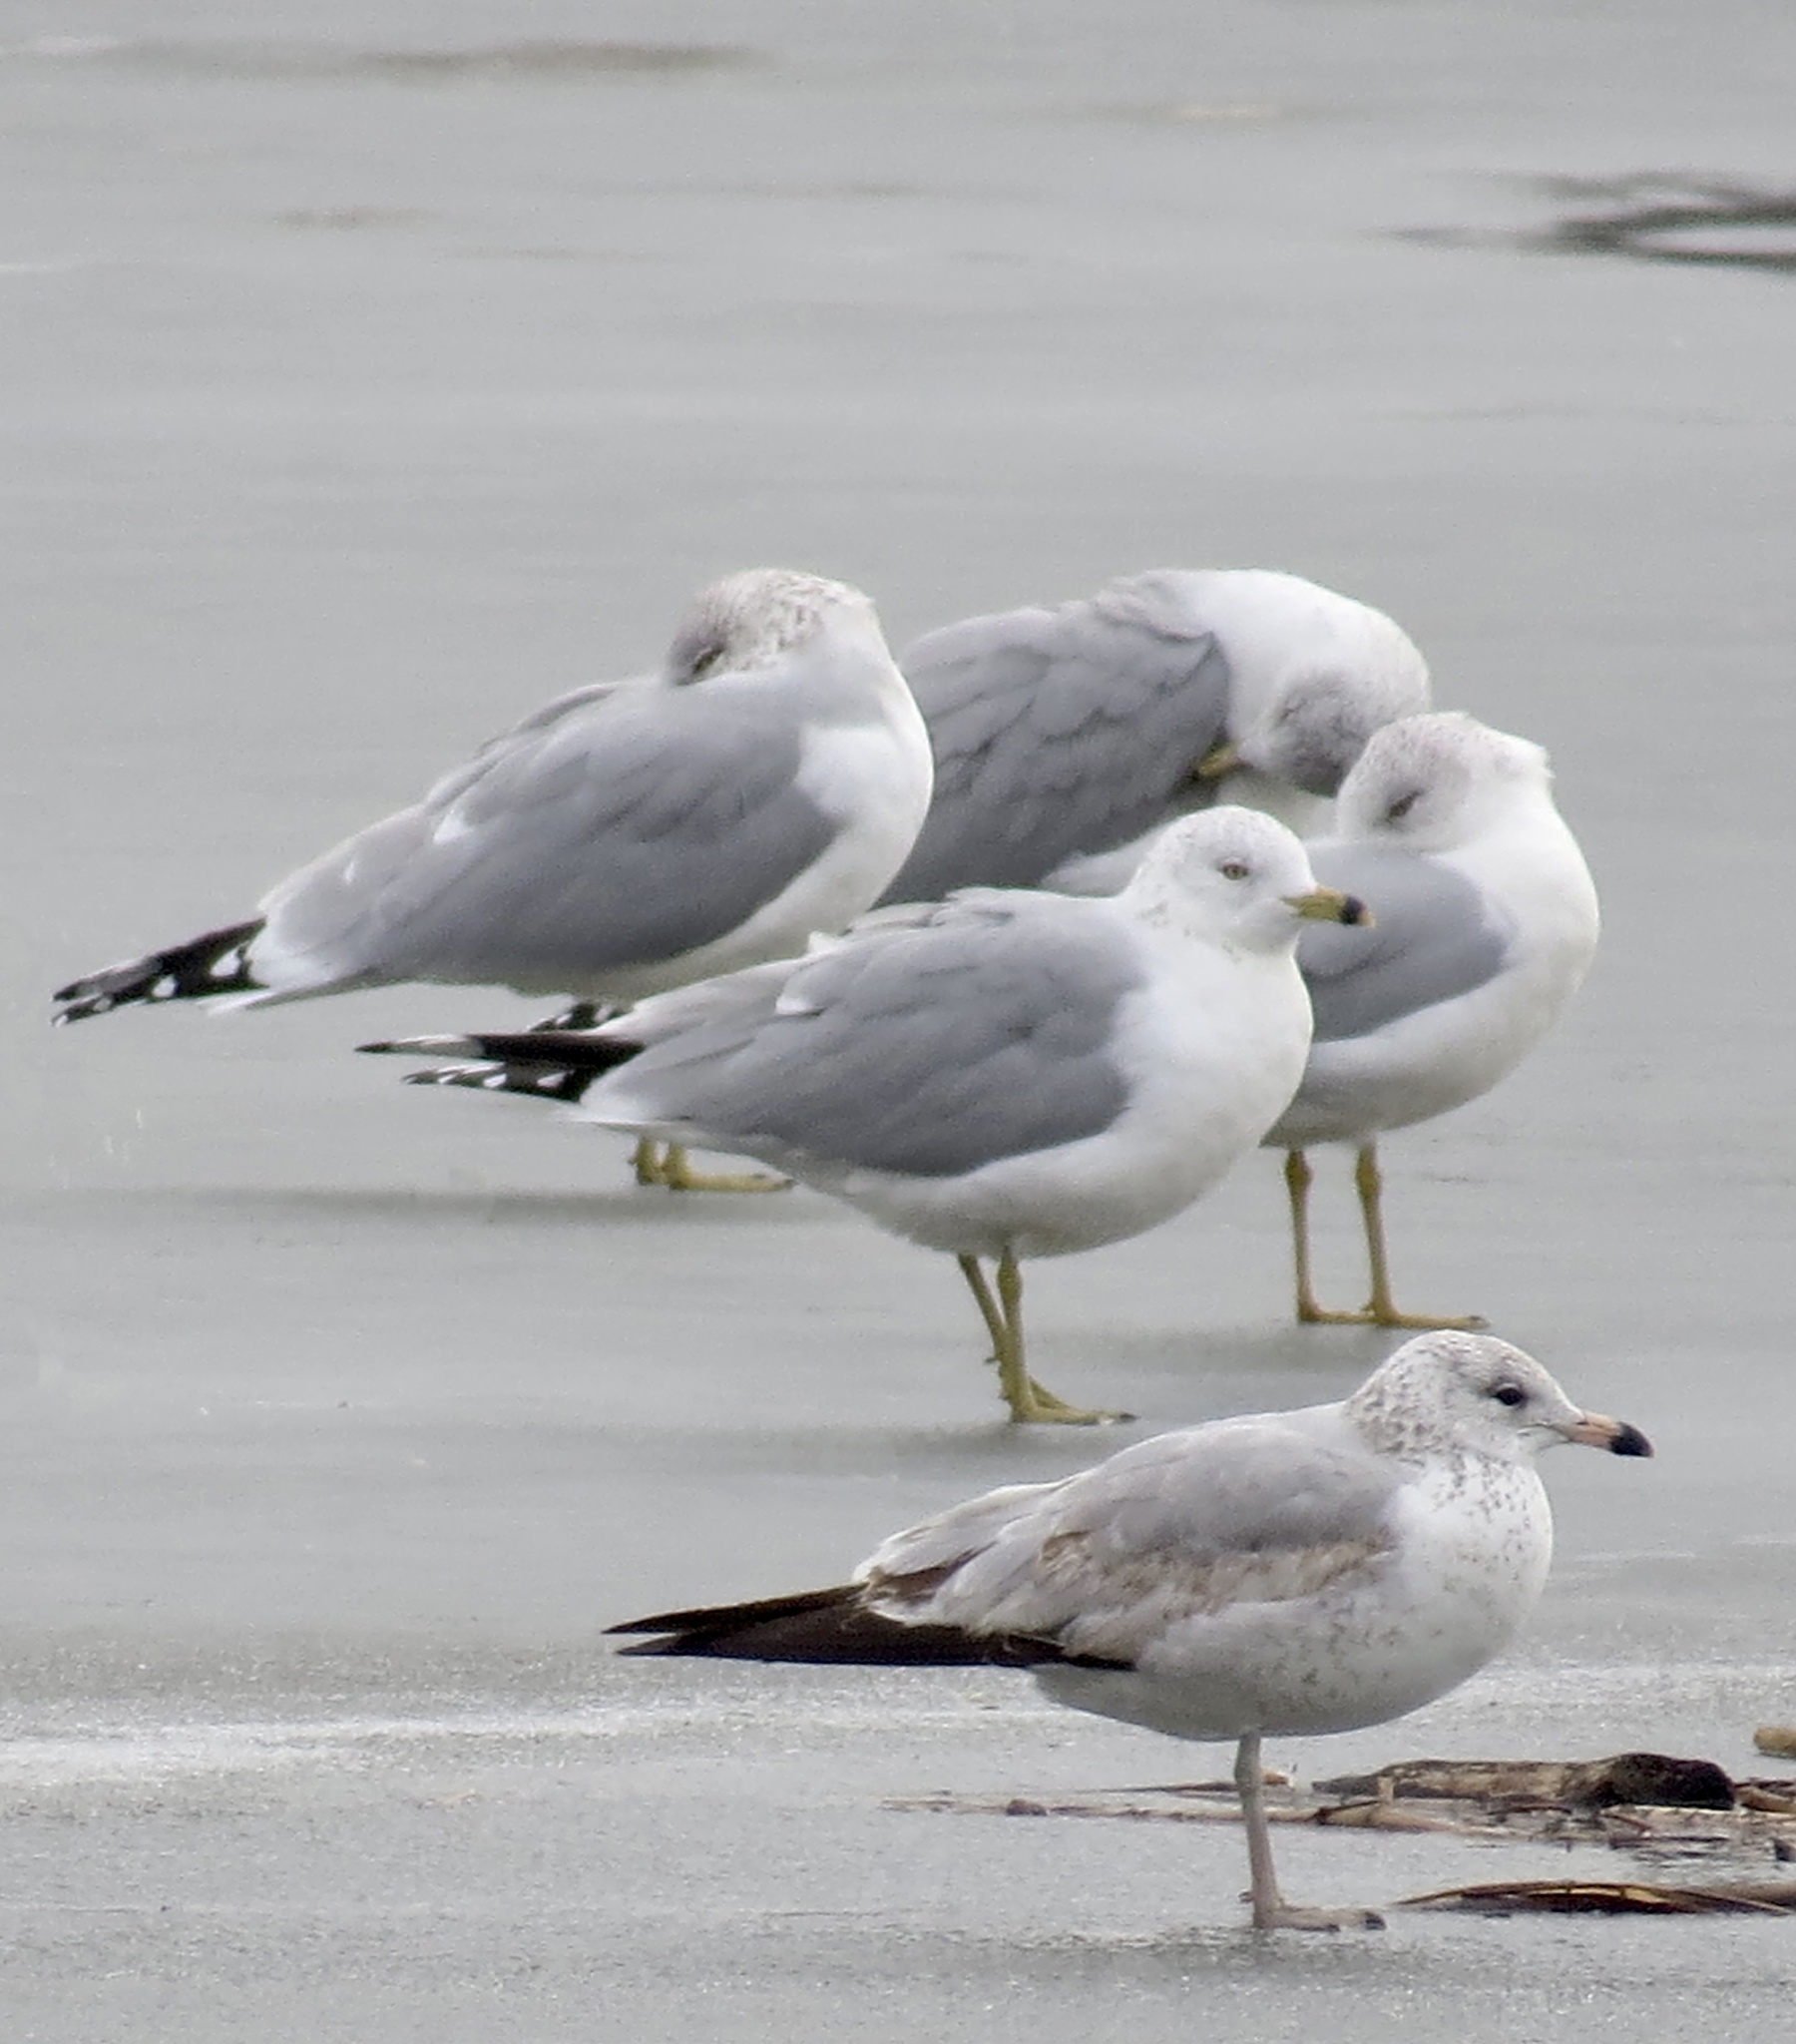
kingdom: Animalia
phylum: Chordata
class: Aves
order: Charadriiformes
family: Laridae
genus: Larus
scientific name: Larus delawarensis
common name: Ring-billed gull
